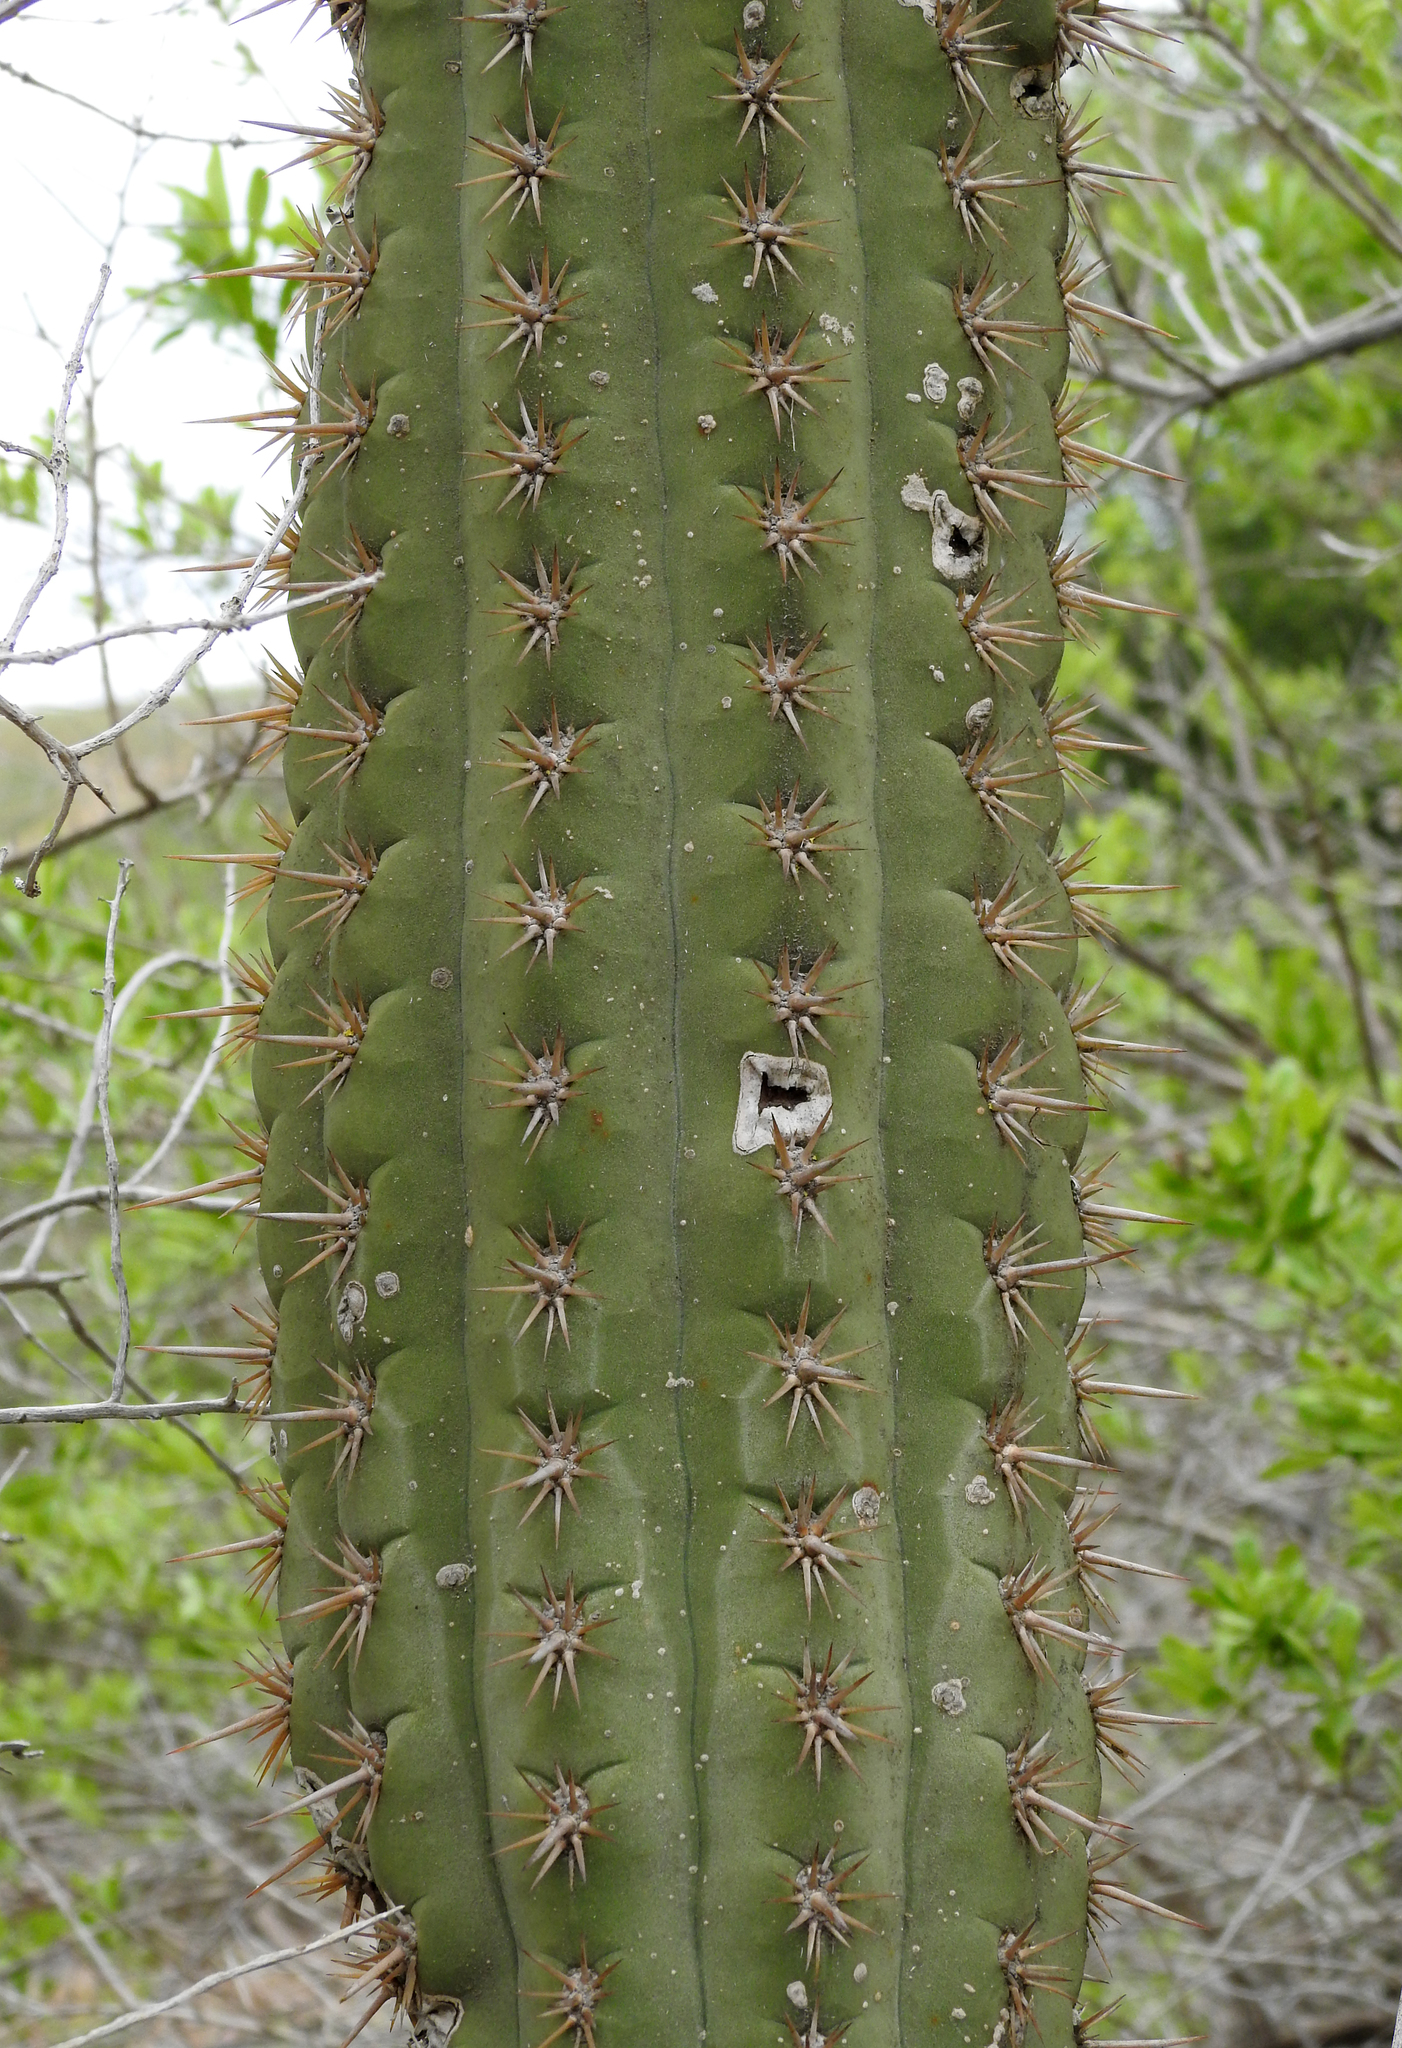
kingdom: Plantae
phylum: Tracheophyta
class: Magnoliopsida
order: Caryophyllales
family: Cactaceae
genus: Leucostele
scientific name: Leucostele chiloensis
